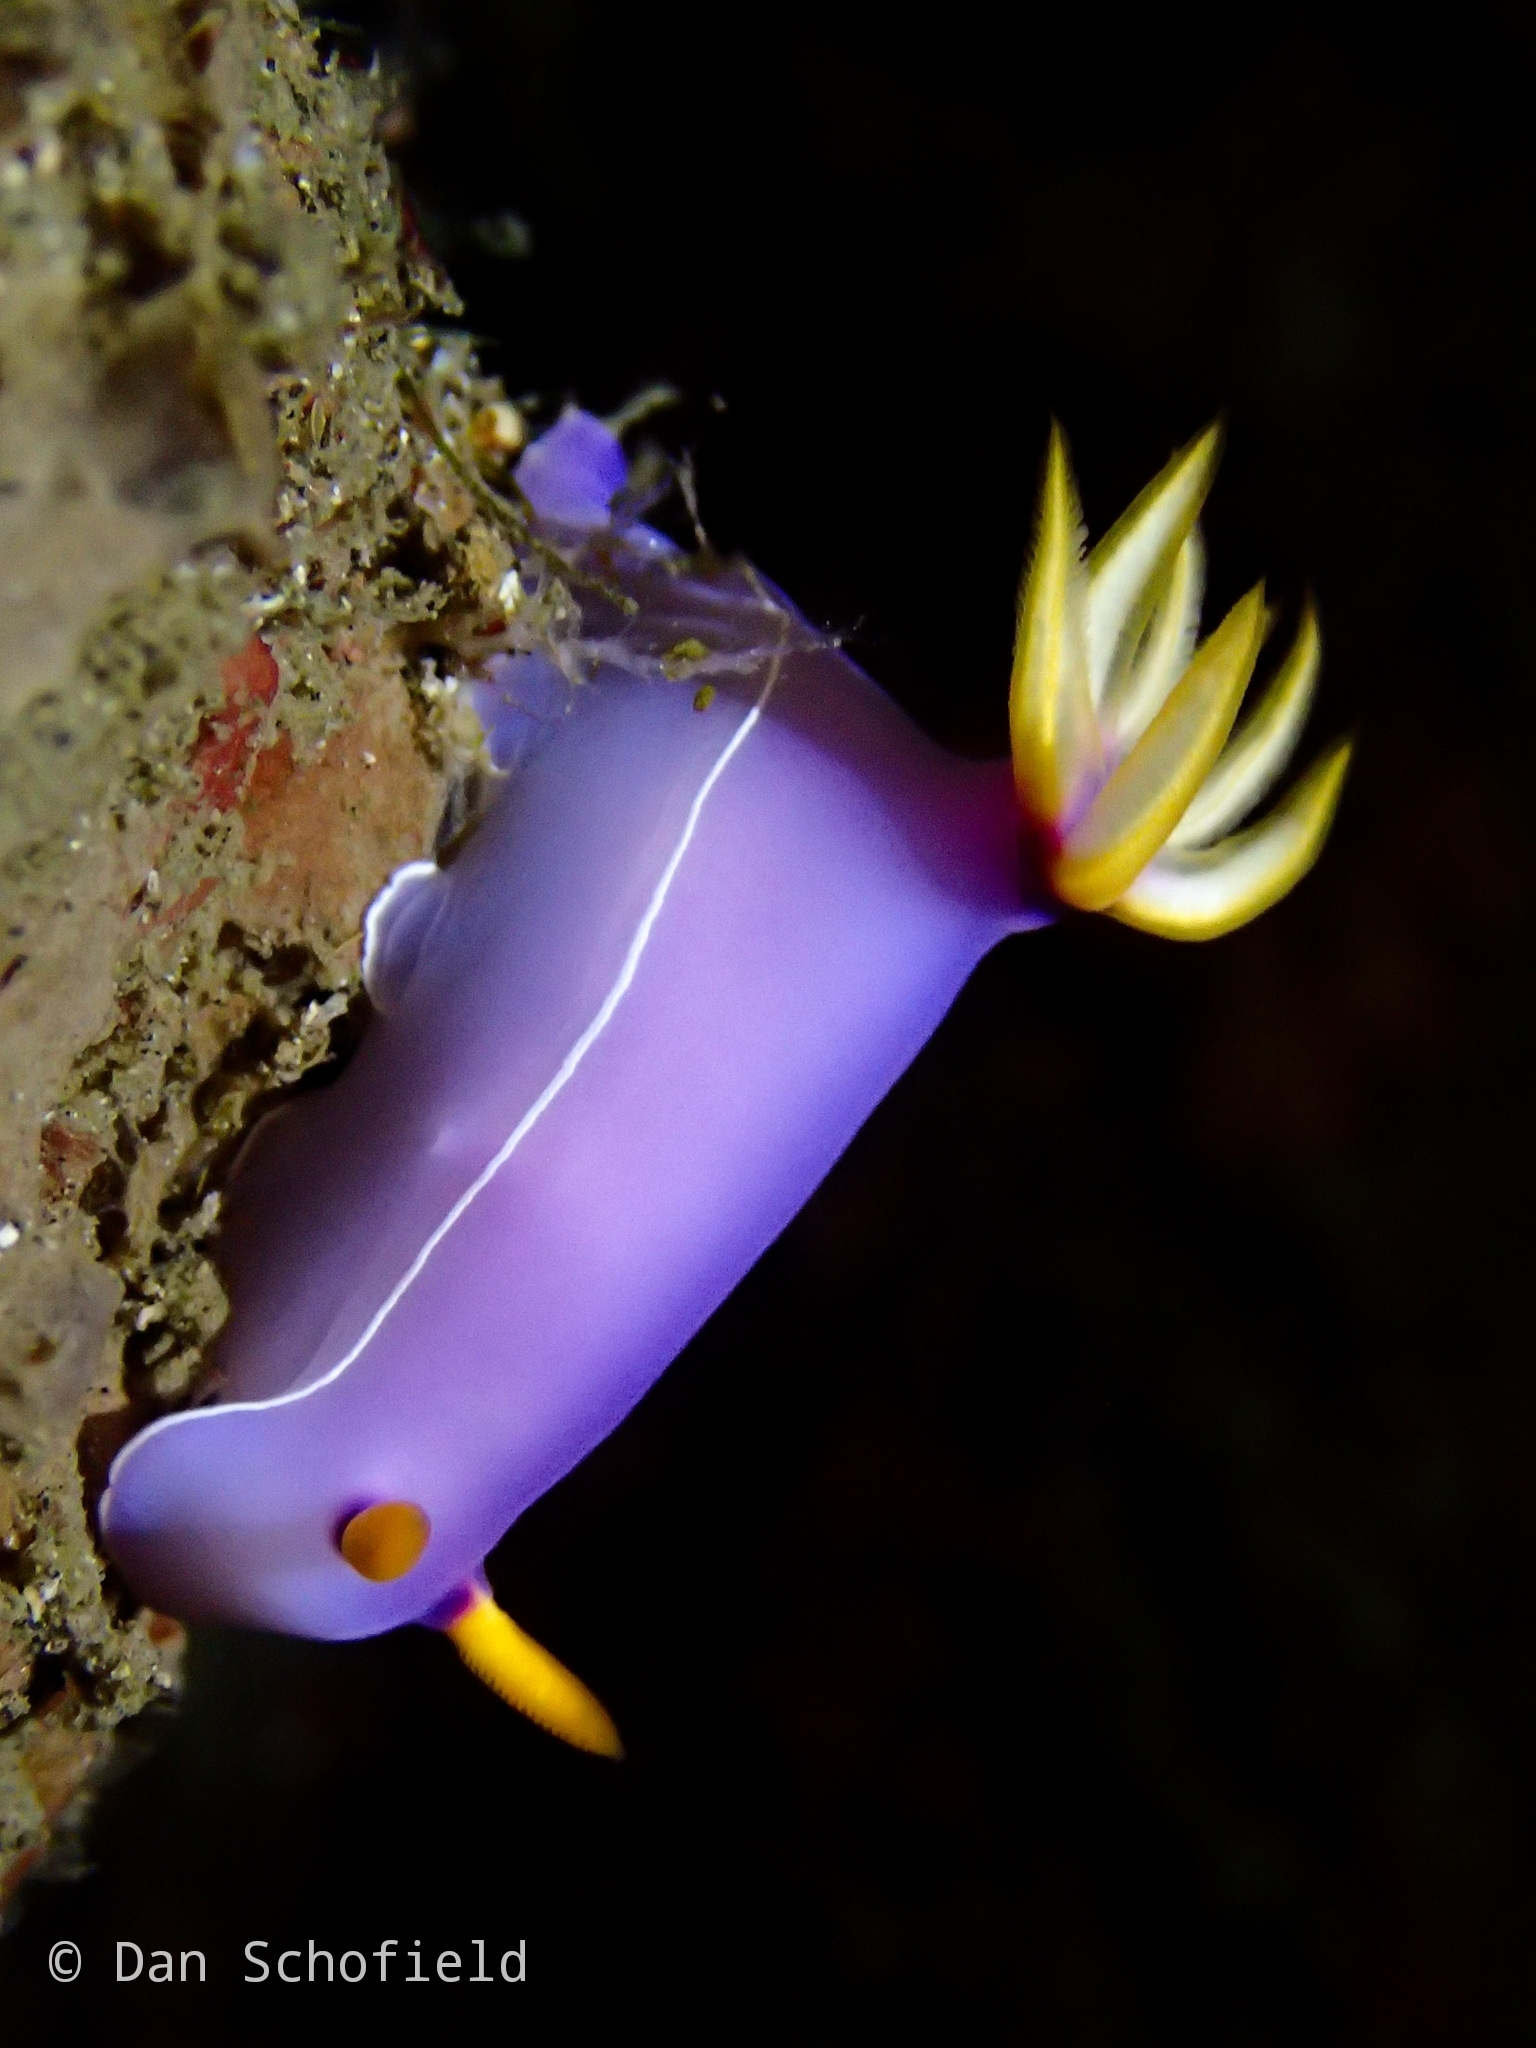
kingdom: Animalia
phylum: Mollusca
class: Gastropoda
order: Nudibranchia
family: Chromodorididae
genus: Hypselodoris
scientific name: Hypselodoris bullockii
